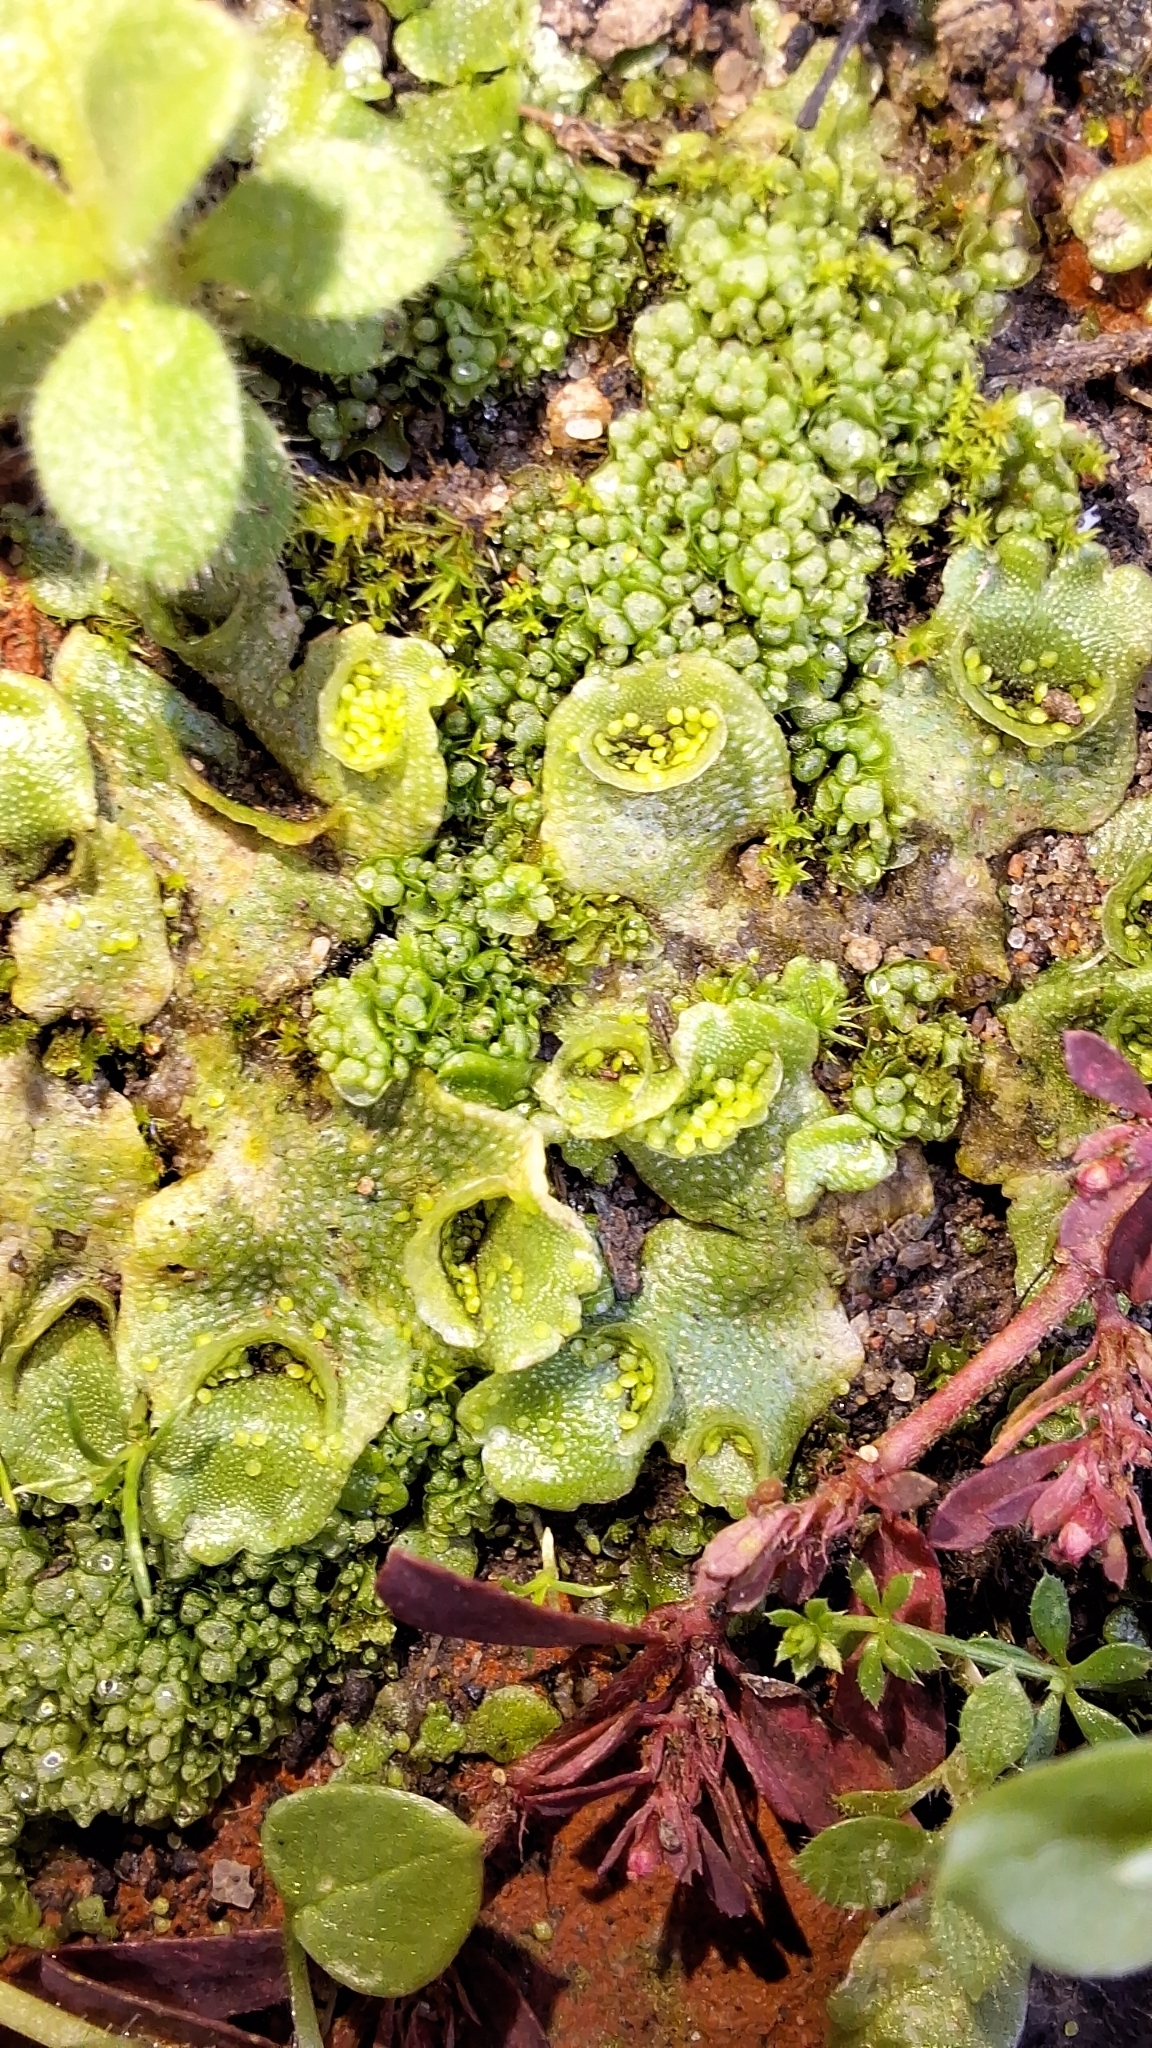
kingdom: Plantae
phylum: Marchantiophyta
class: Marchantiopsida
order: Lunulariales
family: Lunulariaceae
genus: Lunularia
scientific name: Lunularia cruciata
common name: Crescent-cup liverwort
